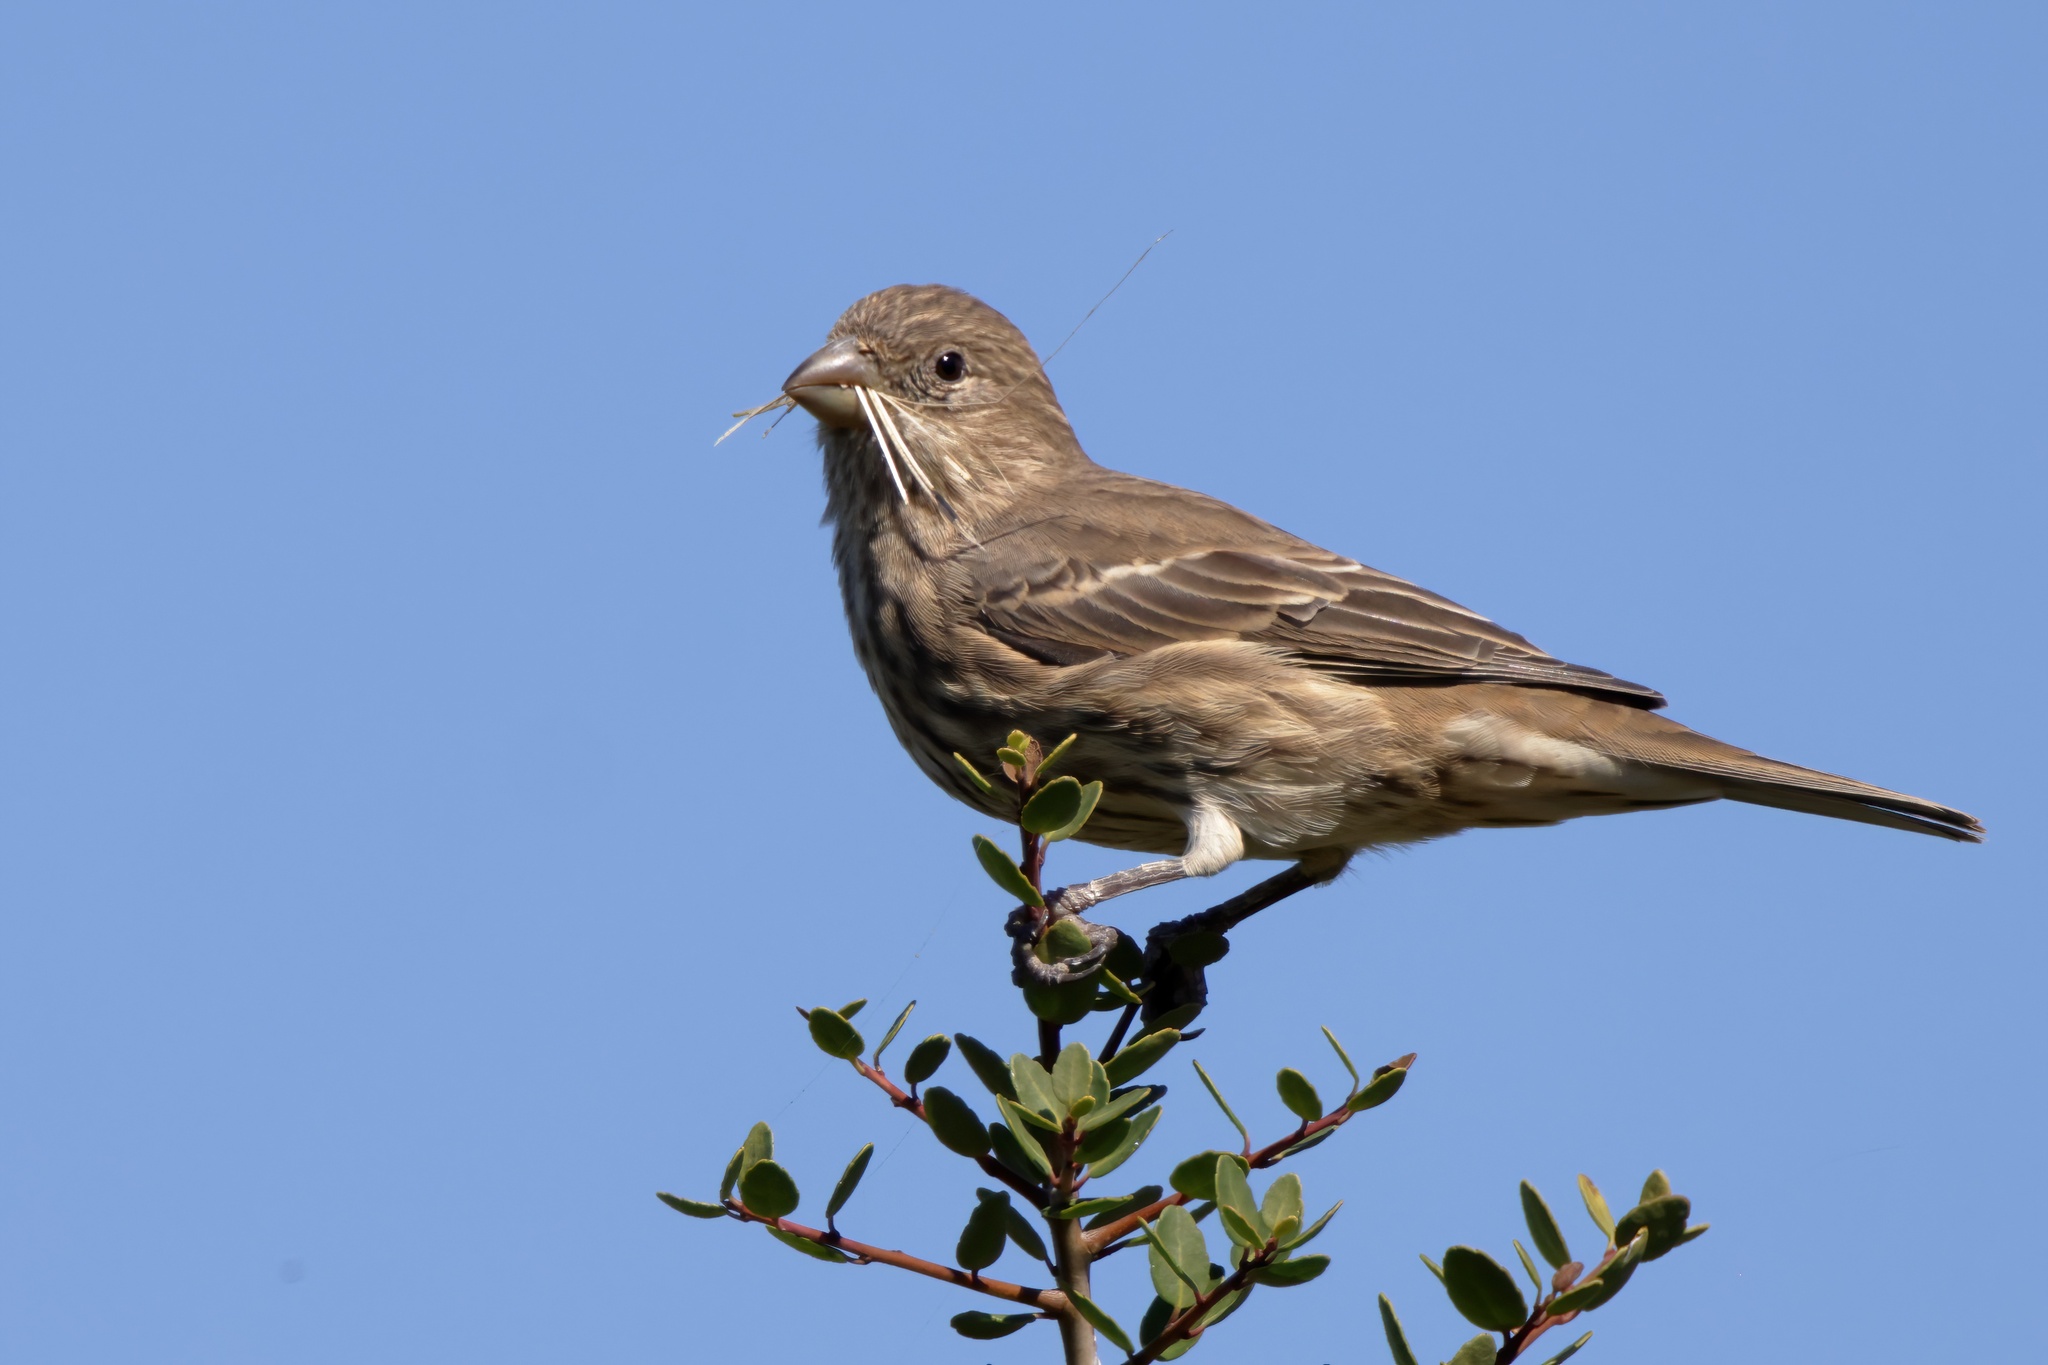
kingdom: Animalia
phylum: Chordata
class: Aves
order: Passeriformes
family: Fringillidae
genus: Haemorhous
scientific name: Haemorhous mexicanus
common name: House finch
